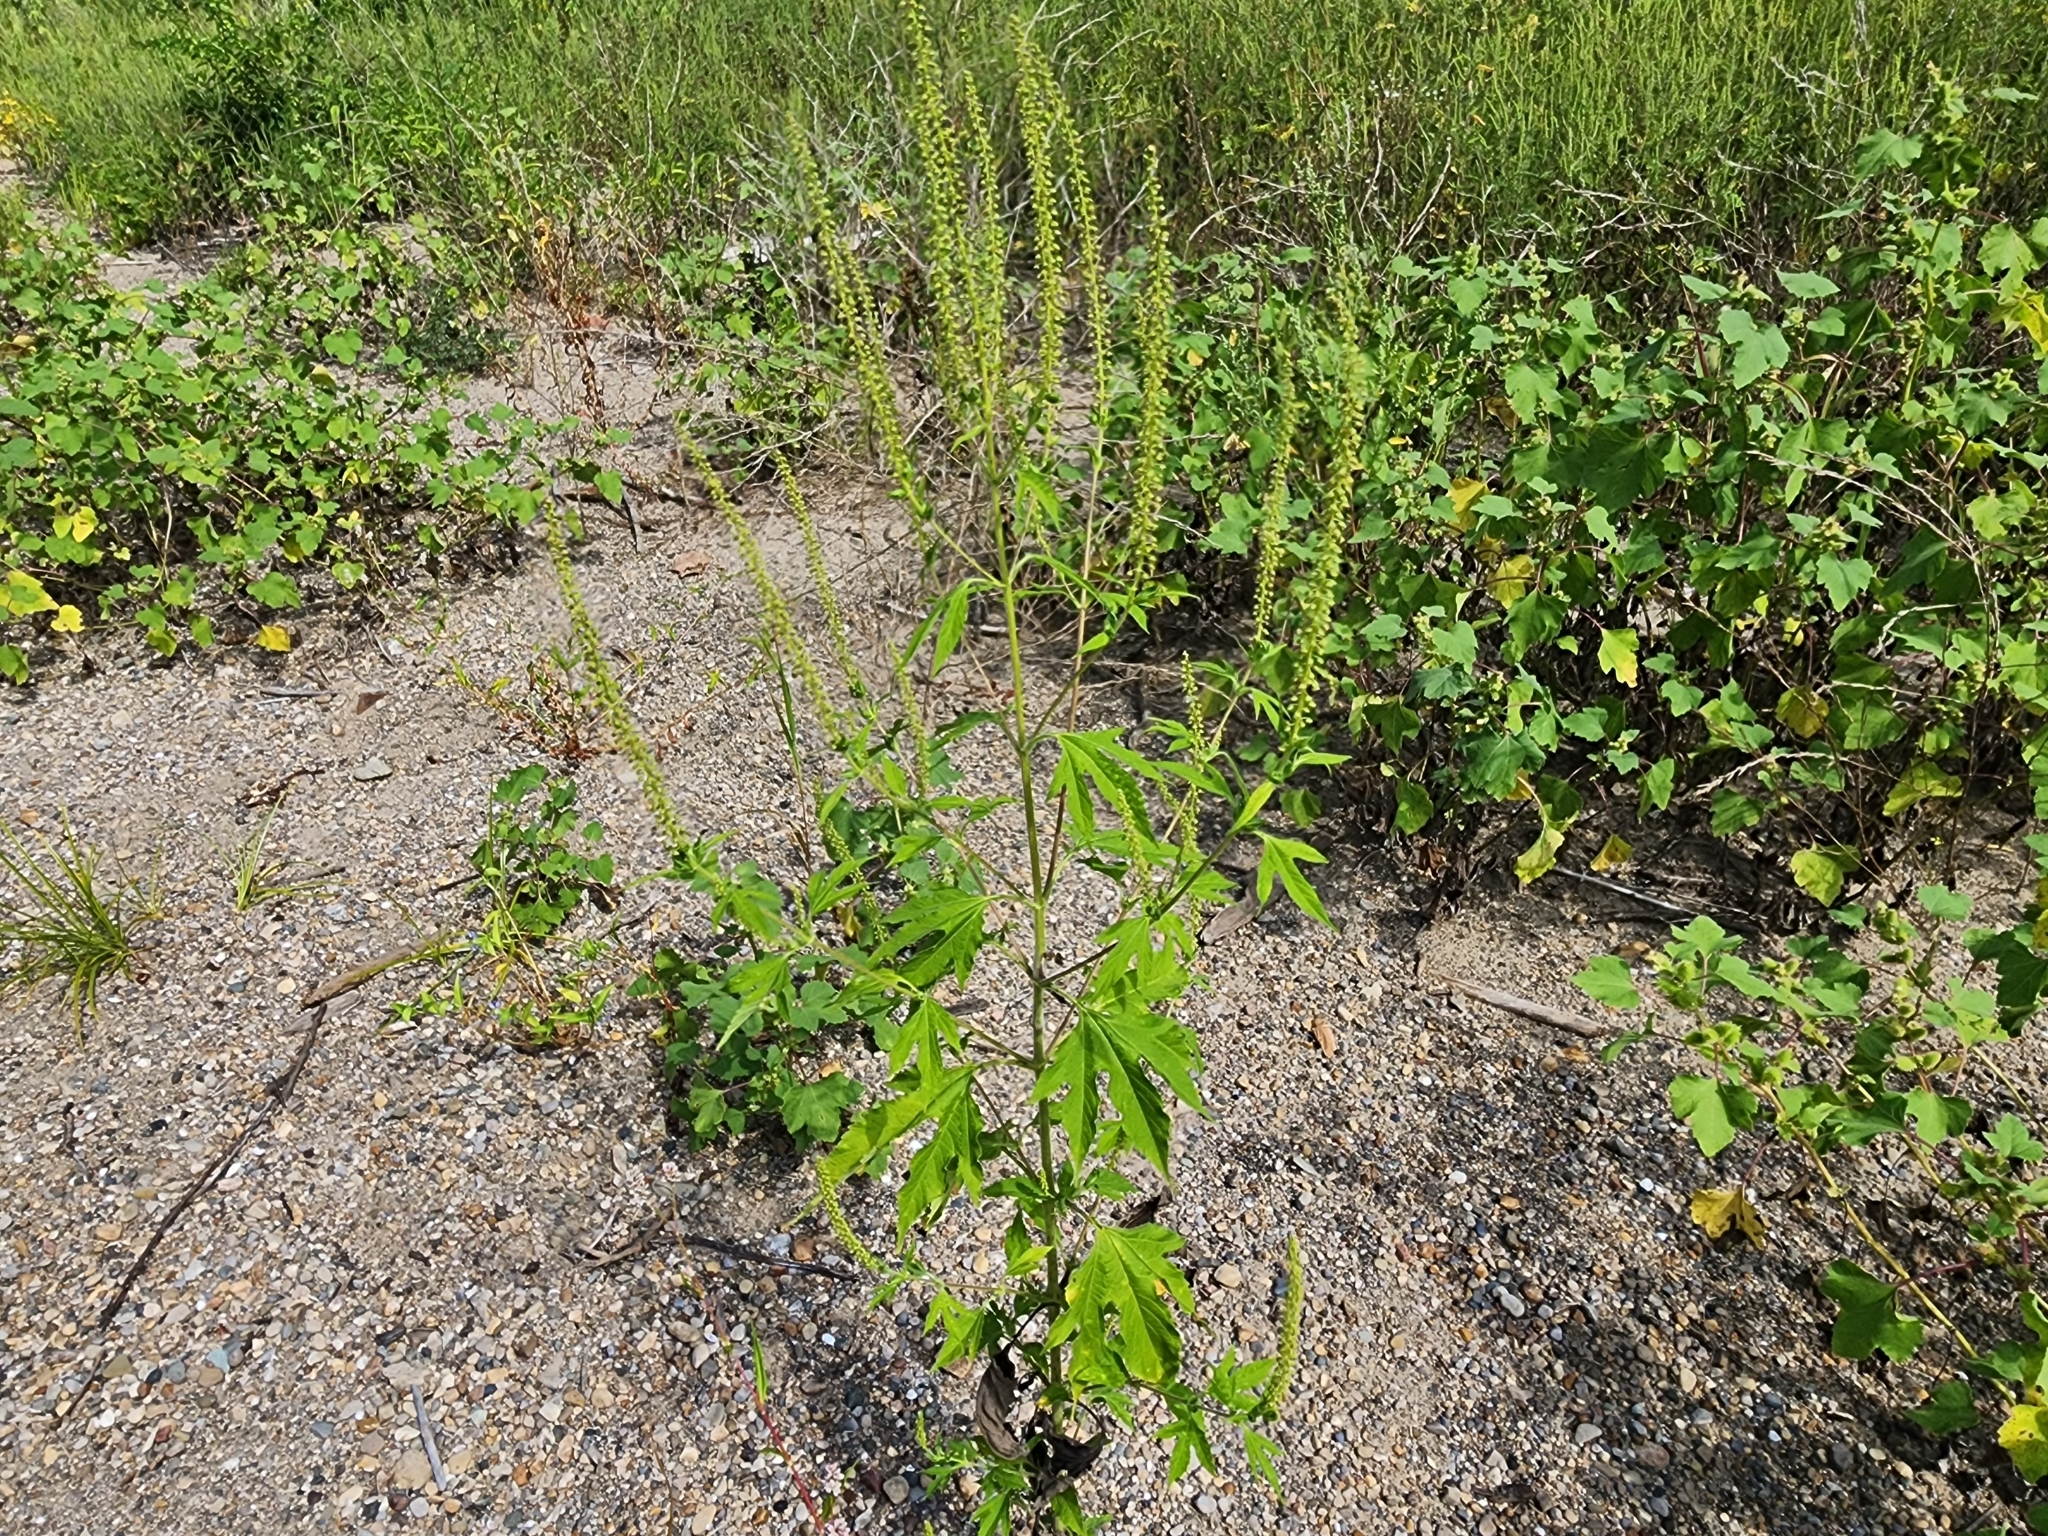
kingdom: Plantae
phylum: Tracheophyta
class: Magnoliopsida
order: Asterales
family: Asteraceae
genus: Ambrosia
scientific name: Ambrosia trifida
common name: Giant ragweed
